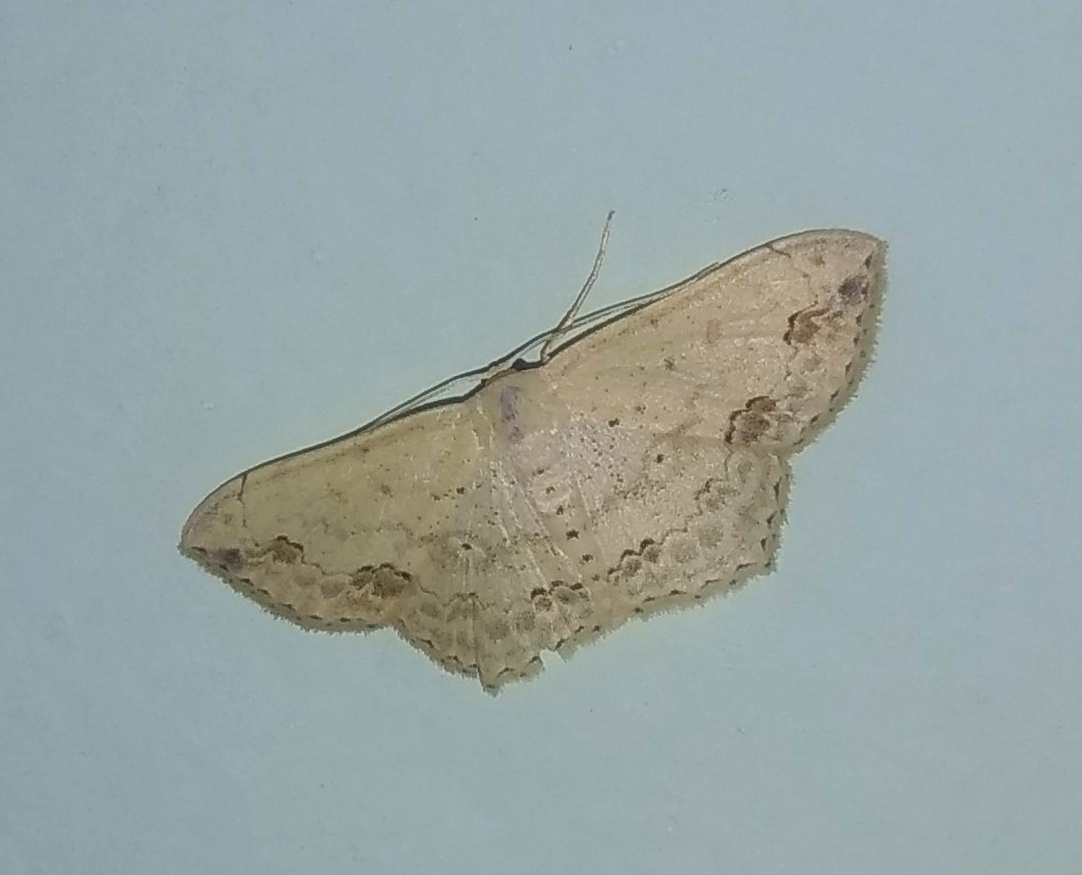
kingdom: Animalia
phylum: Arthropoda
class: Insecta
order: Lepidoptera
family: Geometridae
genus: Scopula
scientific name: Scopula pulchellata
